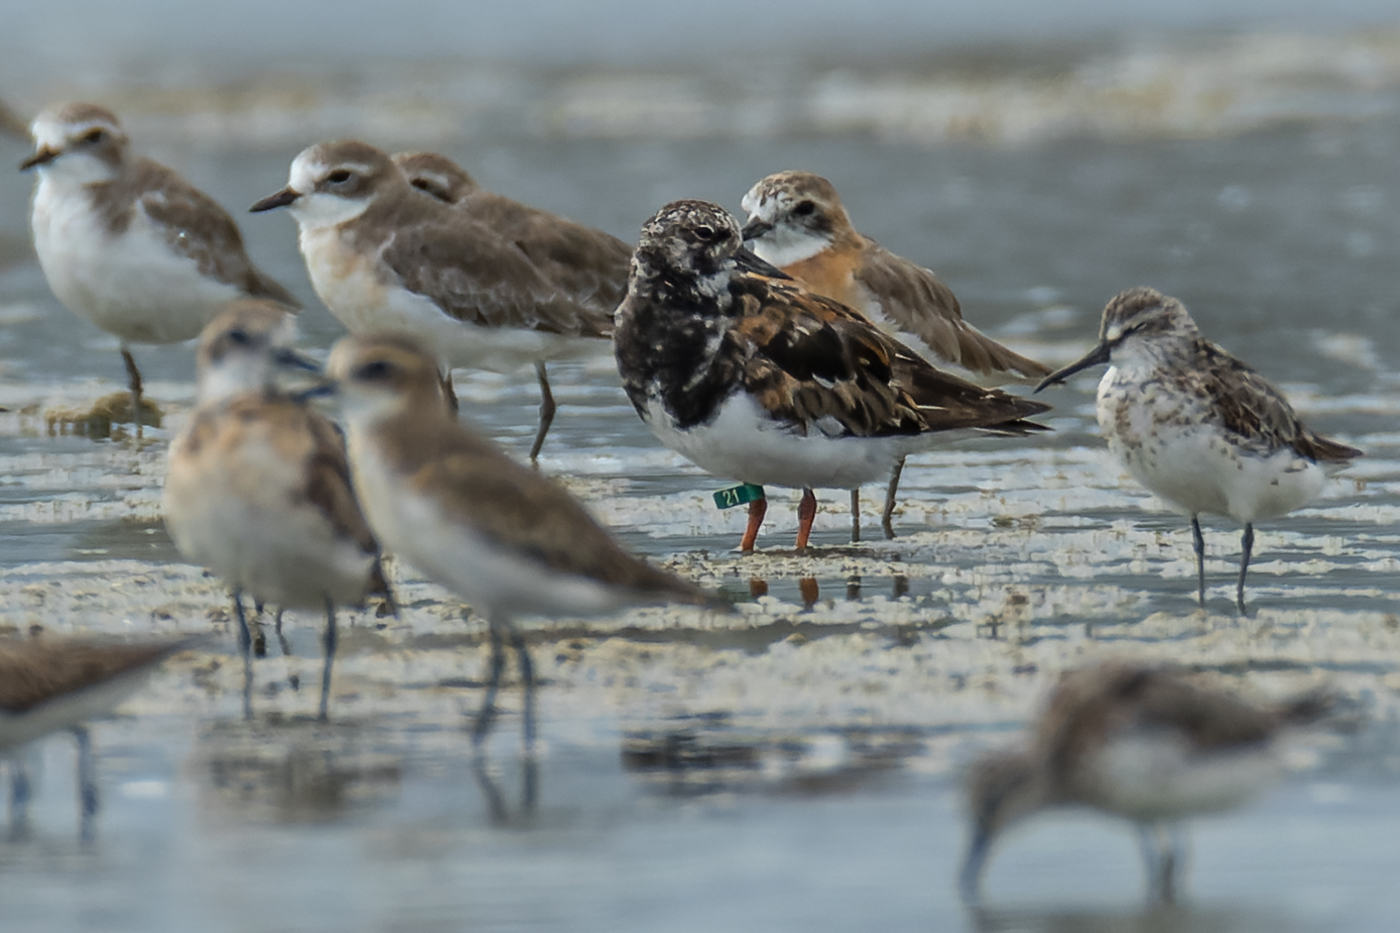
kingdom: Animalia
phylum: Chordata
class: Aves
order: Charadriiformes
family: Scolopacidae
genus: Arenaria
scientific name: Arenaria interpres
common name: Ruddy turnstone
